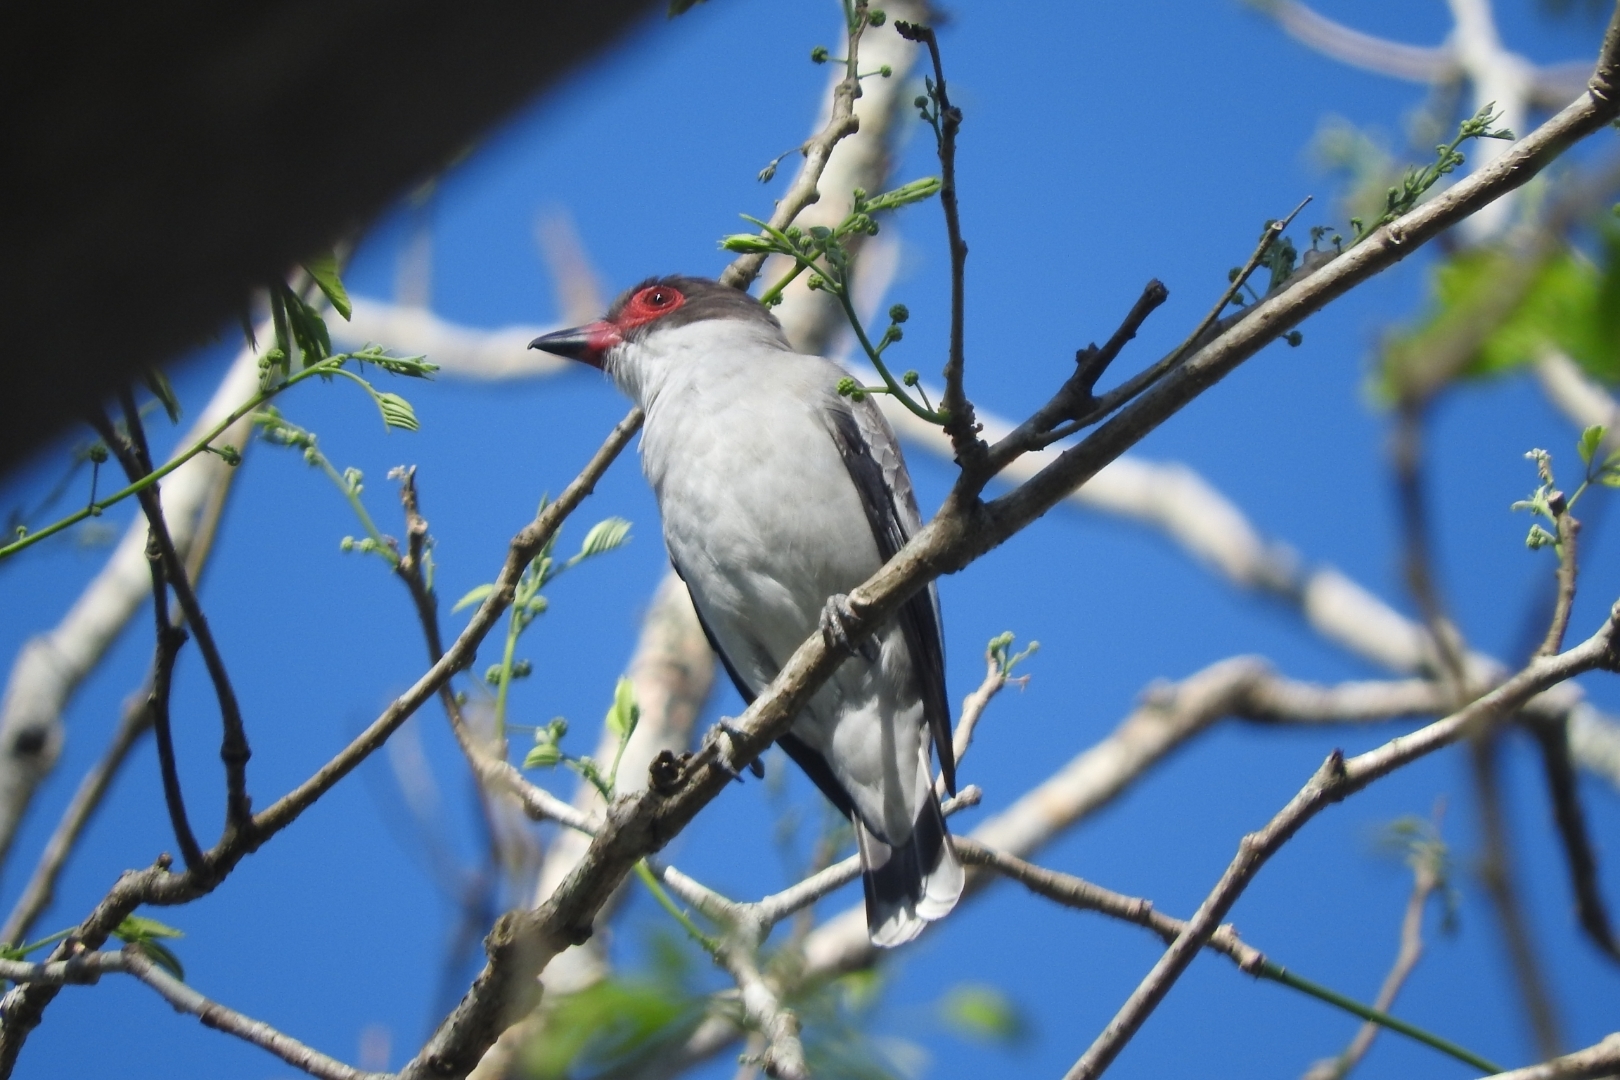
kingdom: Animalia
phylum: Chordata
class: Aves
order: Passeriformes
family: Cotingidae
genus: Tityra
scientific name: Tityra semifasciata
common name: Masked tityra
